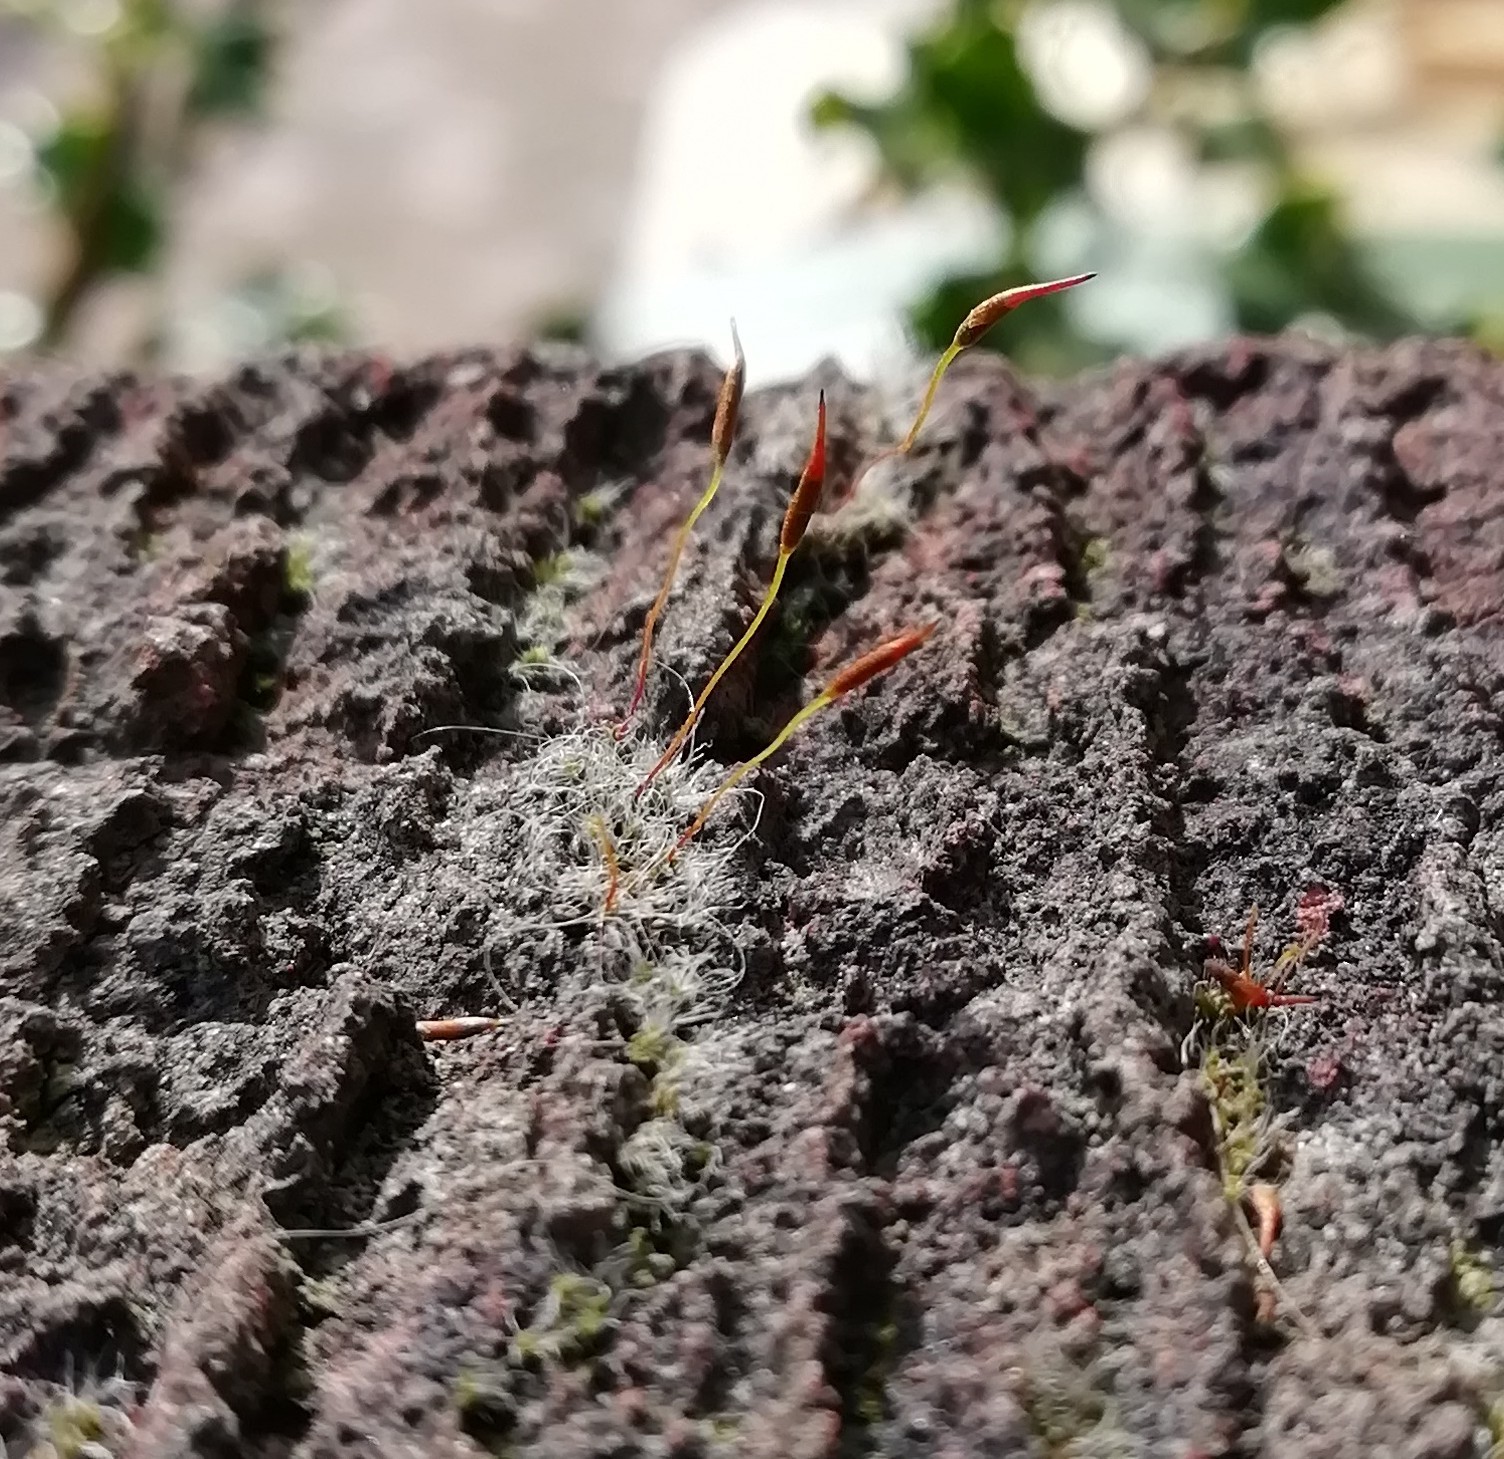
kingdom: Plantae
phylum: Bryophyta
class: Bryopsida
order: Pottiales
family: Pottiaceae
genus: Tortula
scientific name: Tortula muralis
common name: Wall screw-moss
